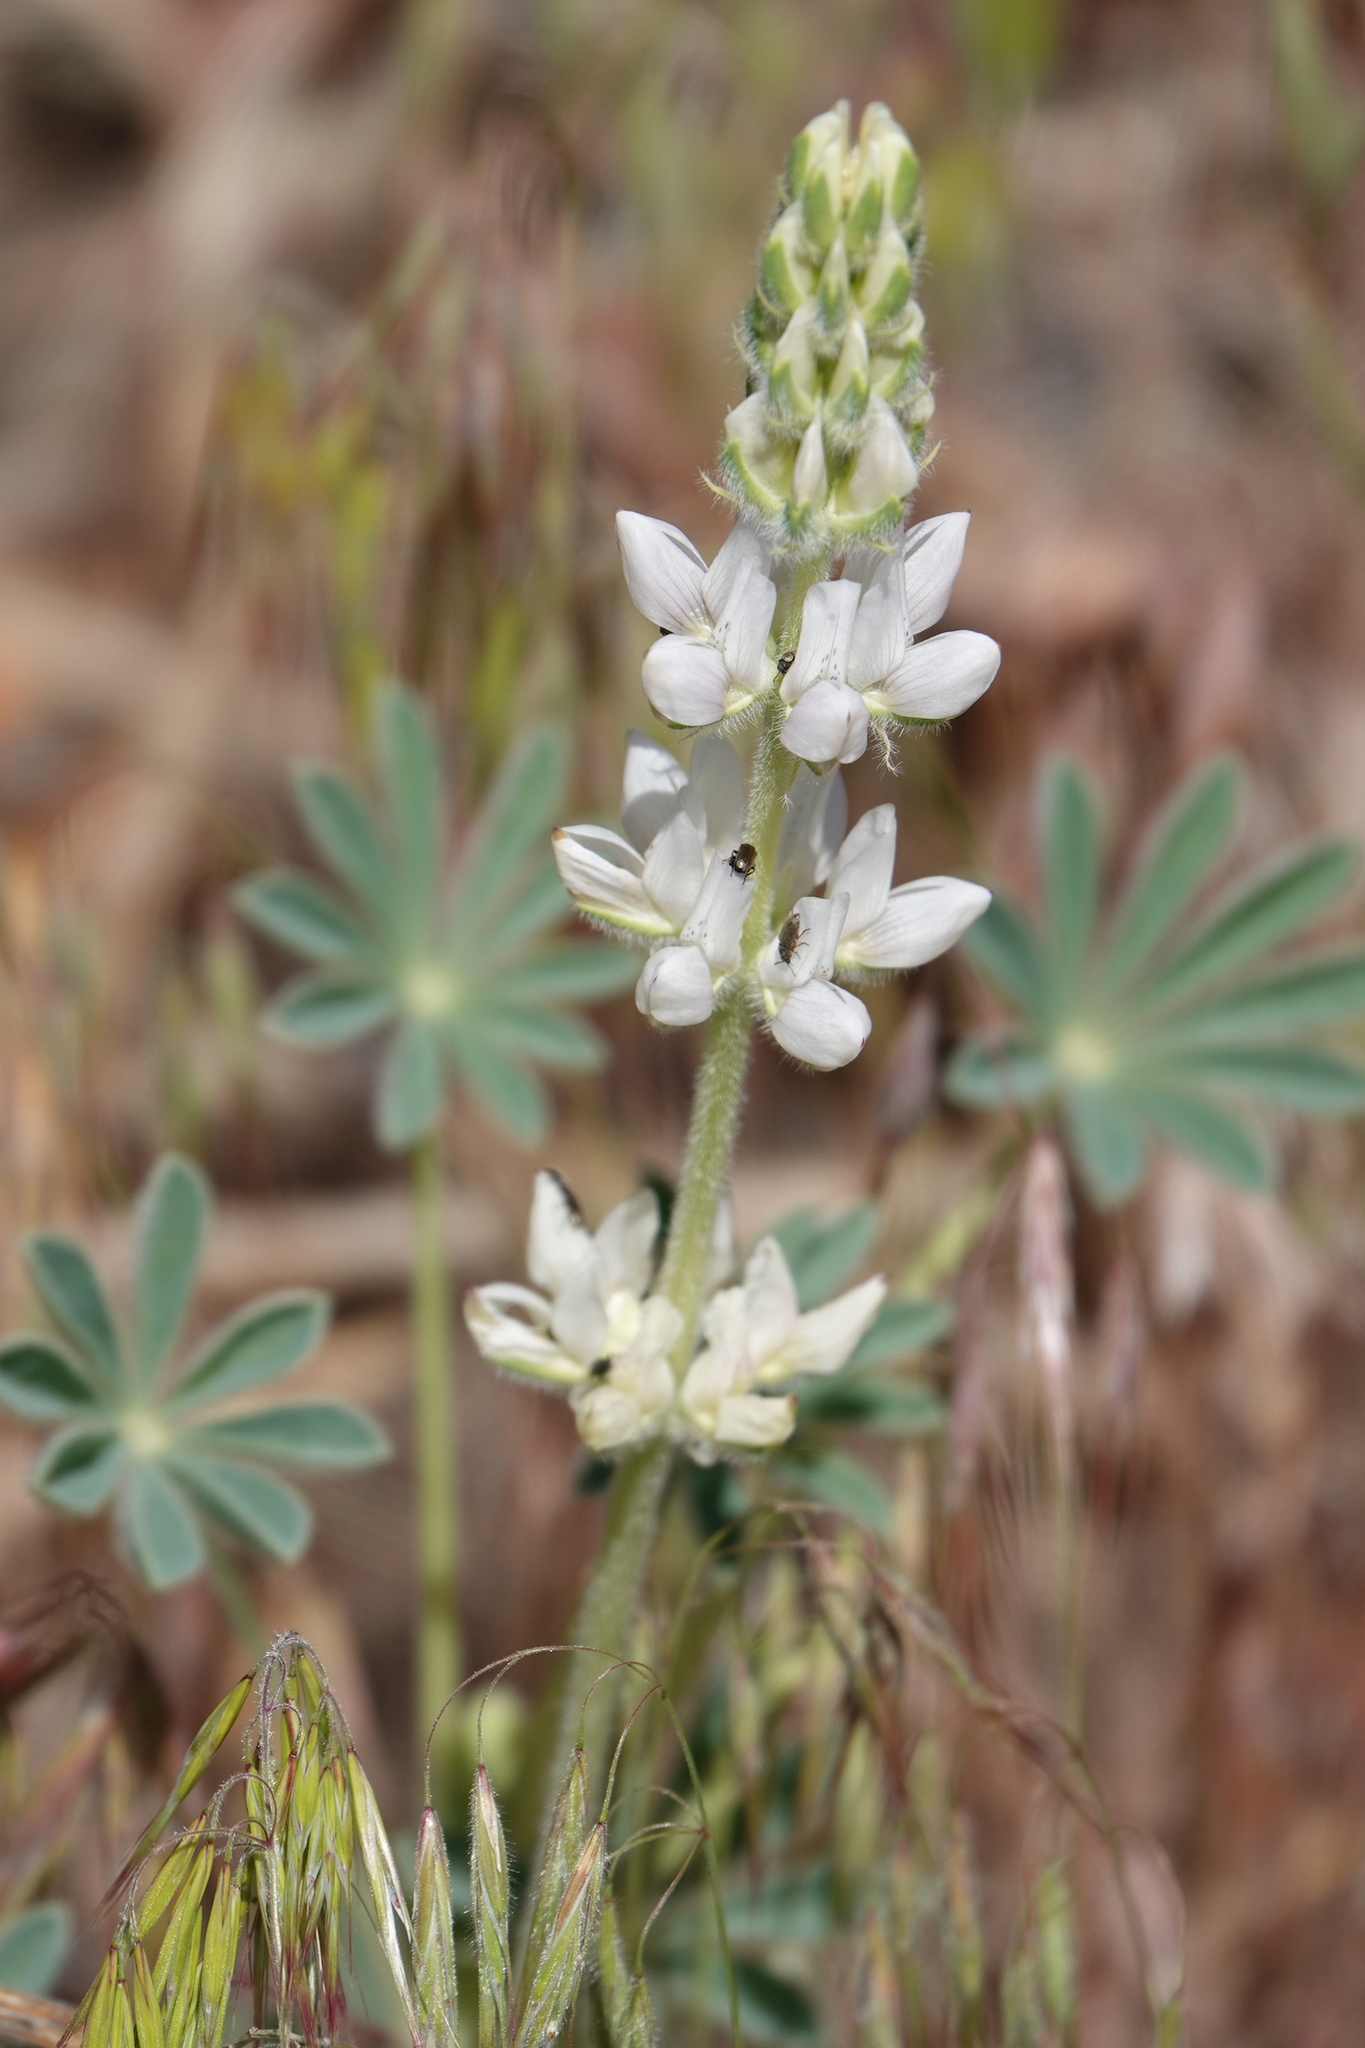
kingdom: Plantae
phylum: Tracheophyta
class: Magnoliopsida
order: Fabales
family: Fabaceae
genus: Lupinus
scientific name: Lupinus microcarpus
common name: Chick lupine
